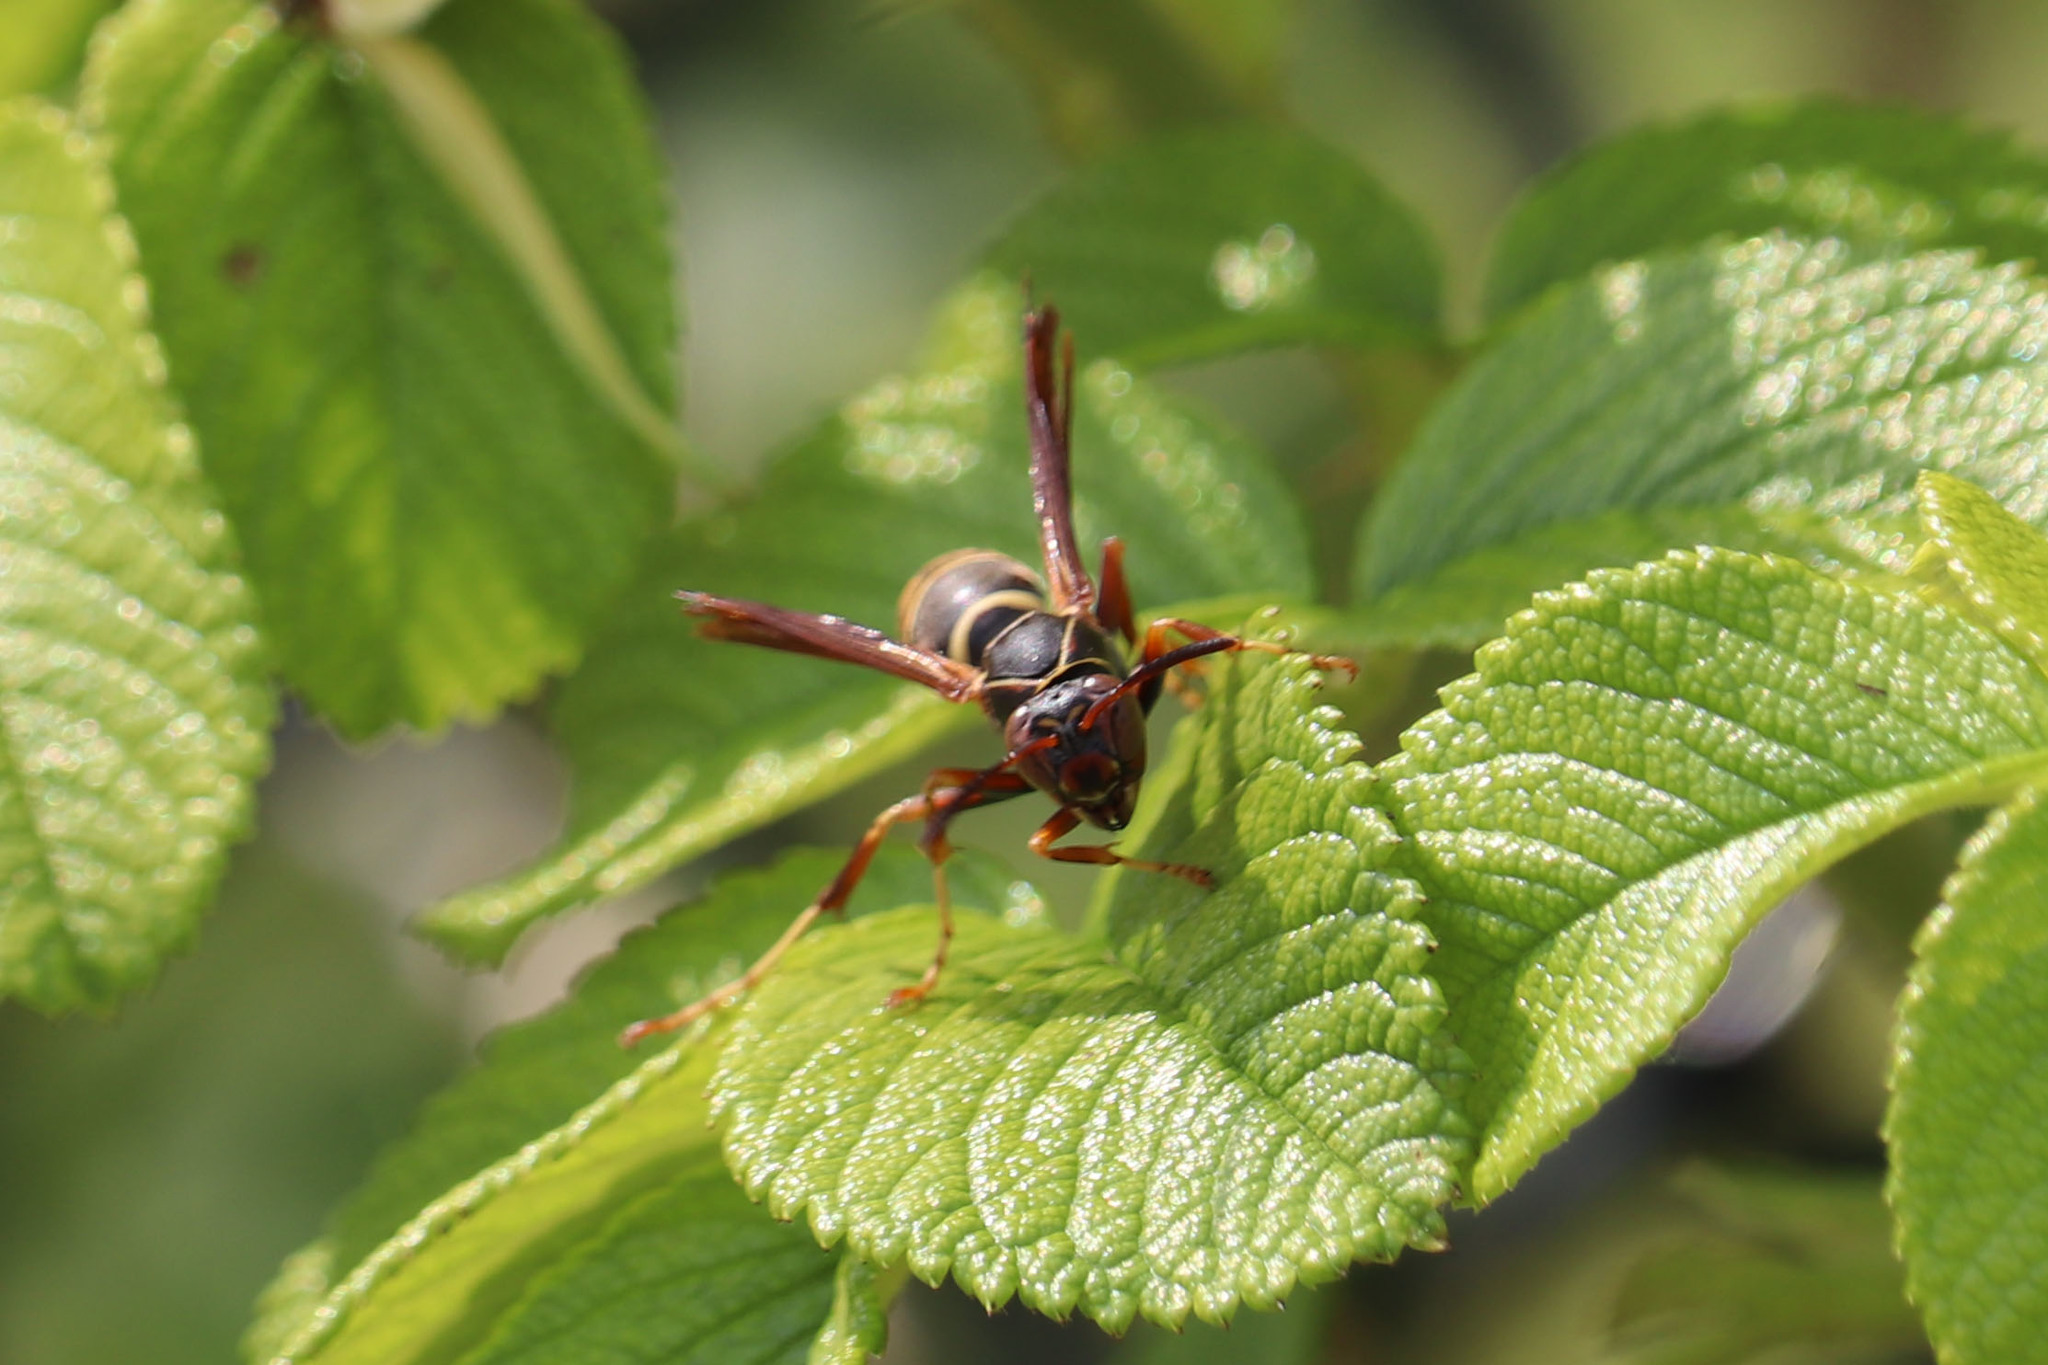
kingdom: Animalia
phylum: Arthropoda
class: Insecta
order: Hymenoptera
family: Eumenidae
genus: Polistes
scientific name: Polistes fuscatus
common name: Dark paper wasp
